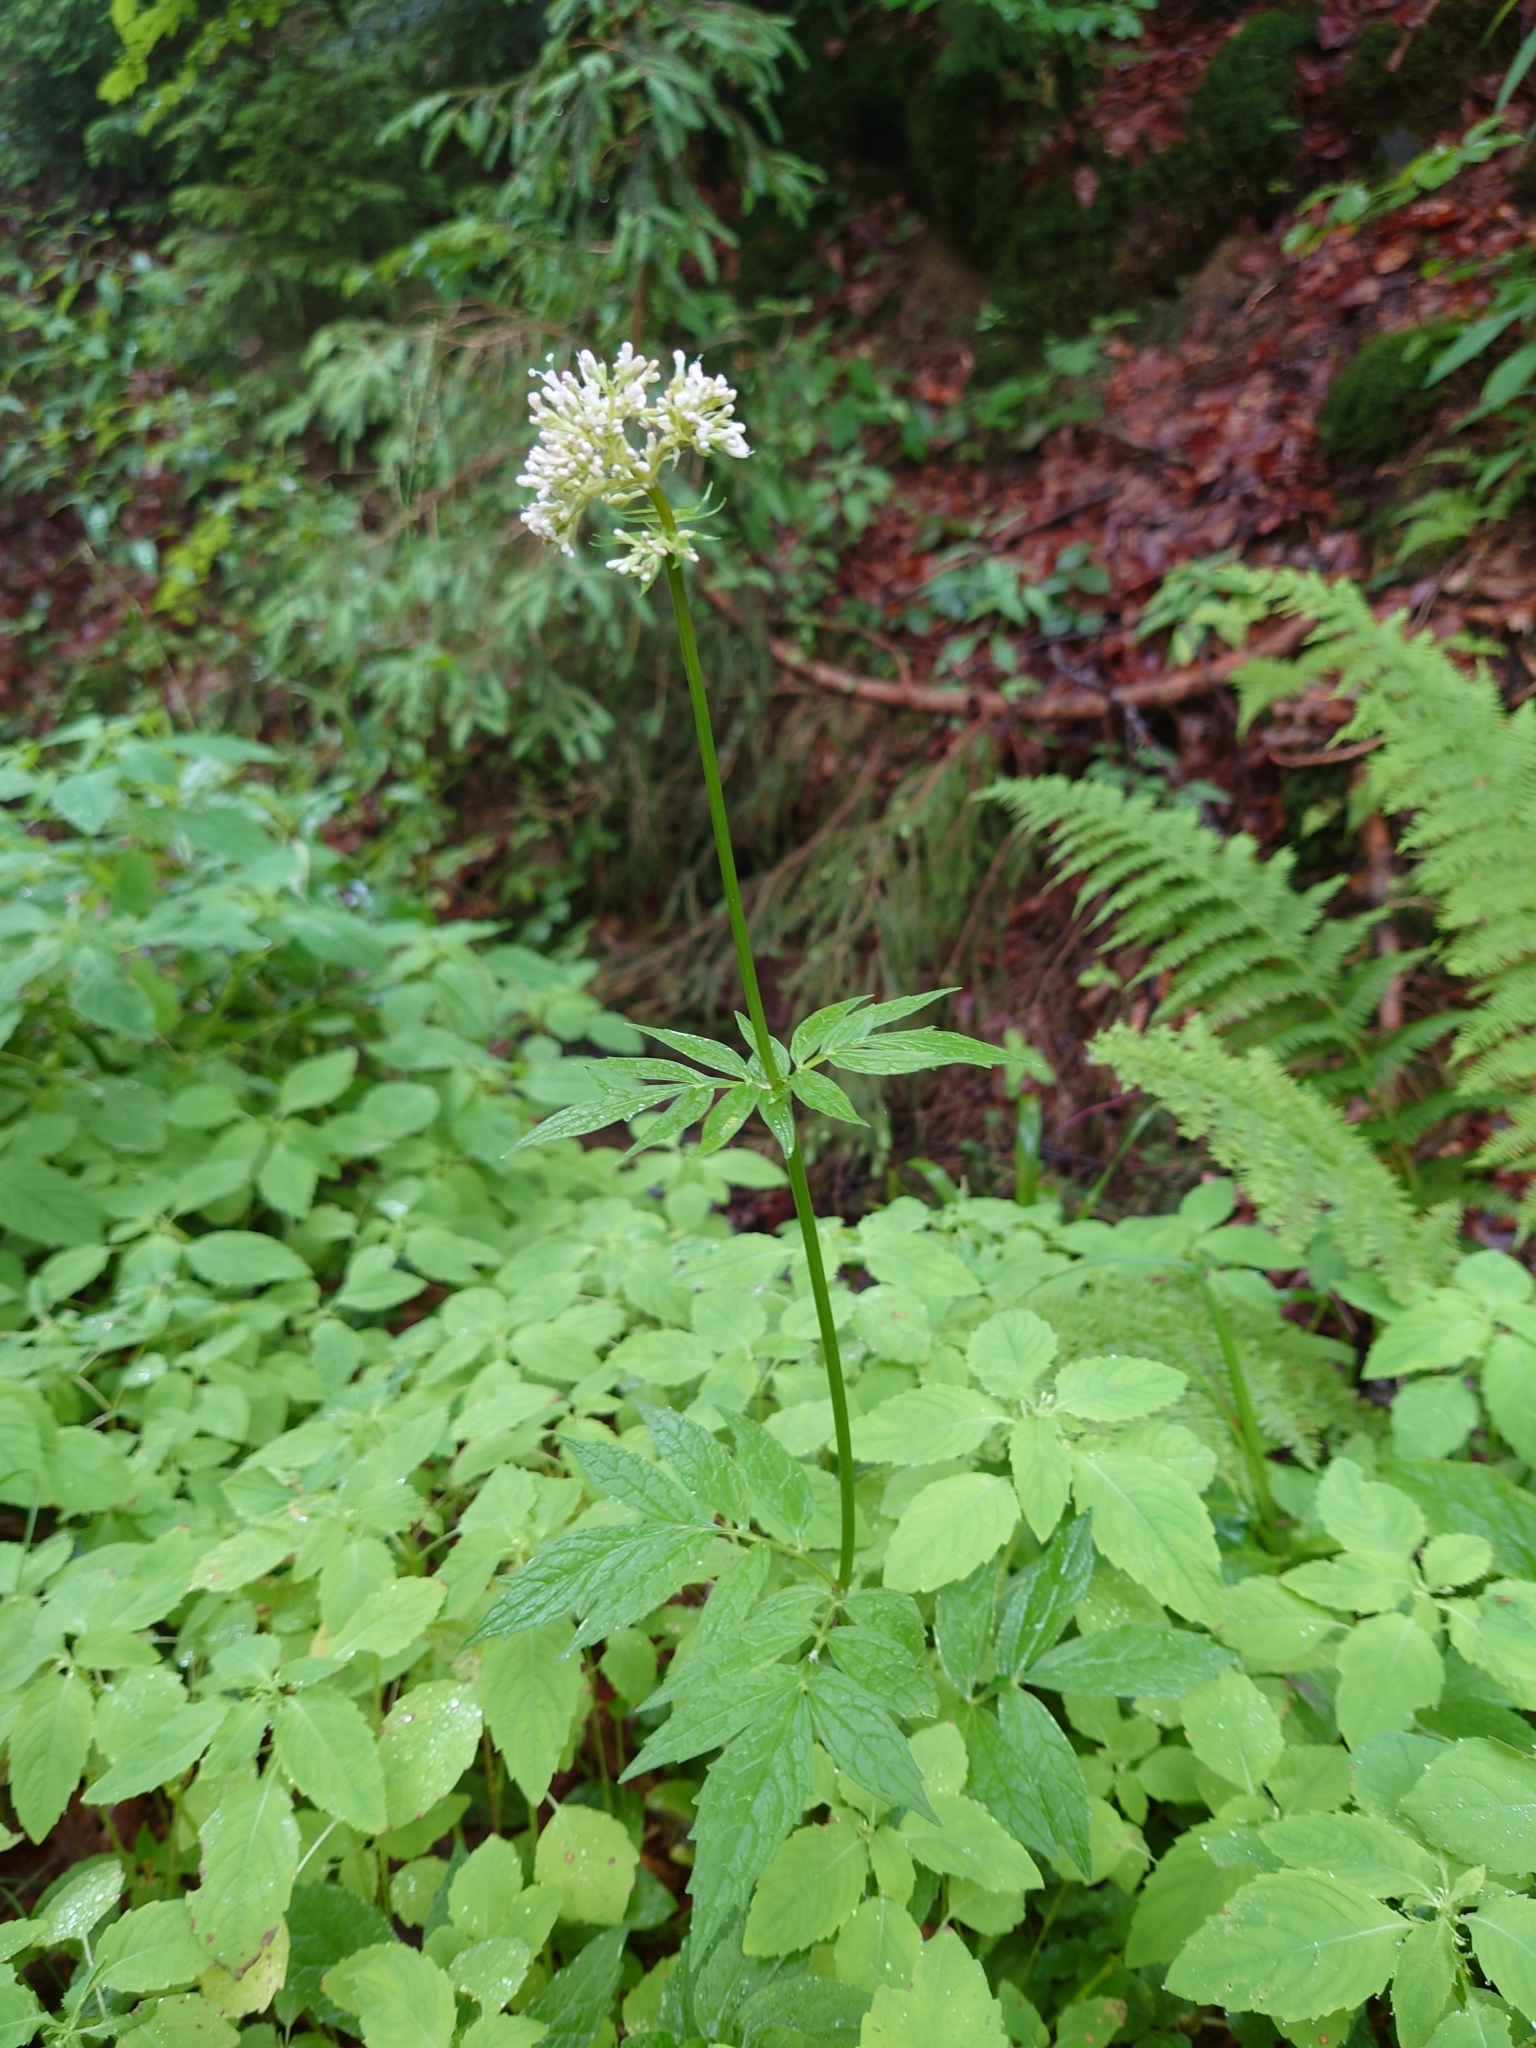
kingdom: Plantae
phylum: Tracheophyta
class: Magnoliopsida
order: Dipsacales
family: Caprifoliaceae
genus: Valeriana
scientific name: Valeriana sambucifolia
